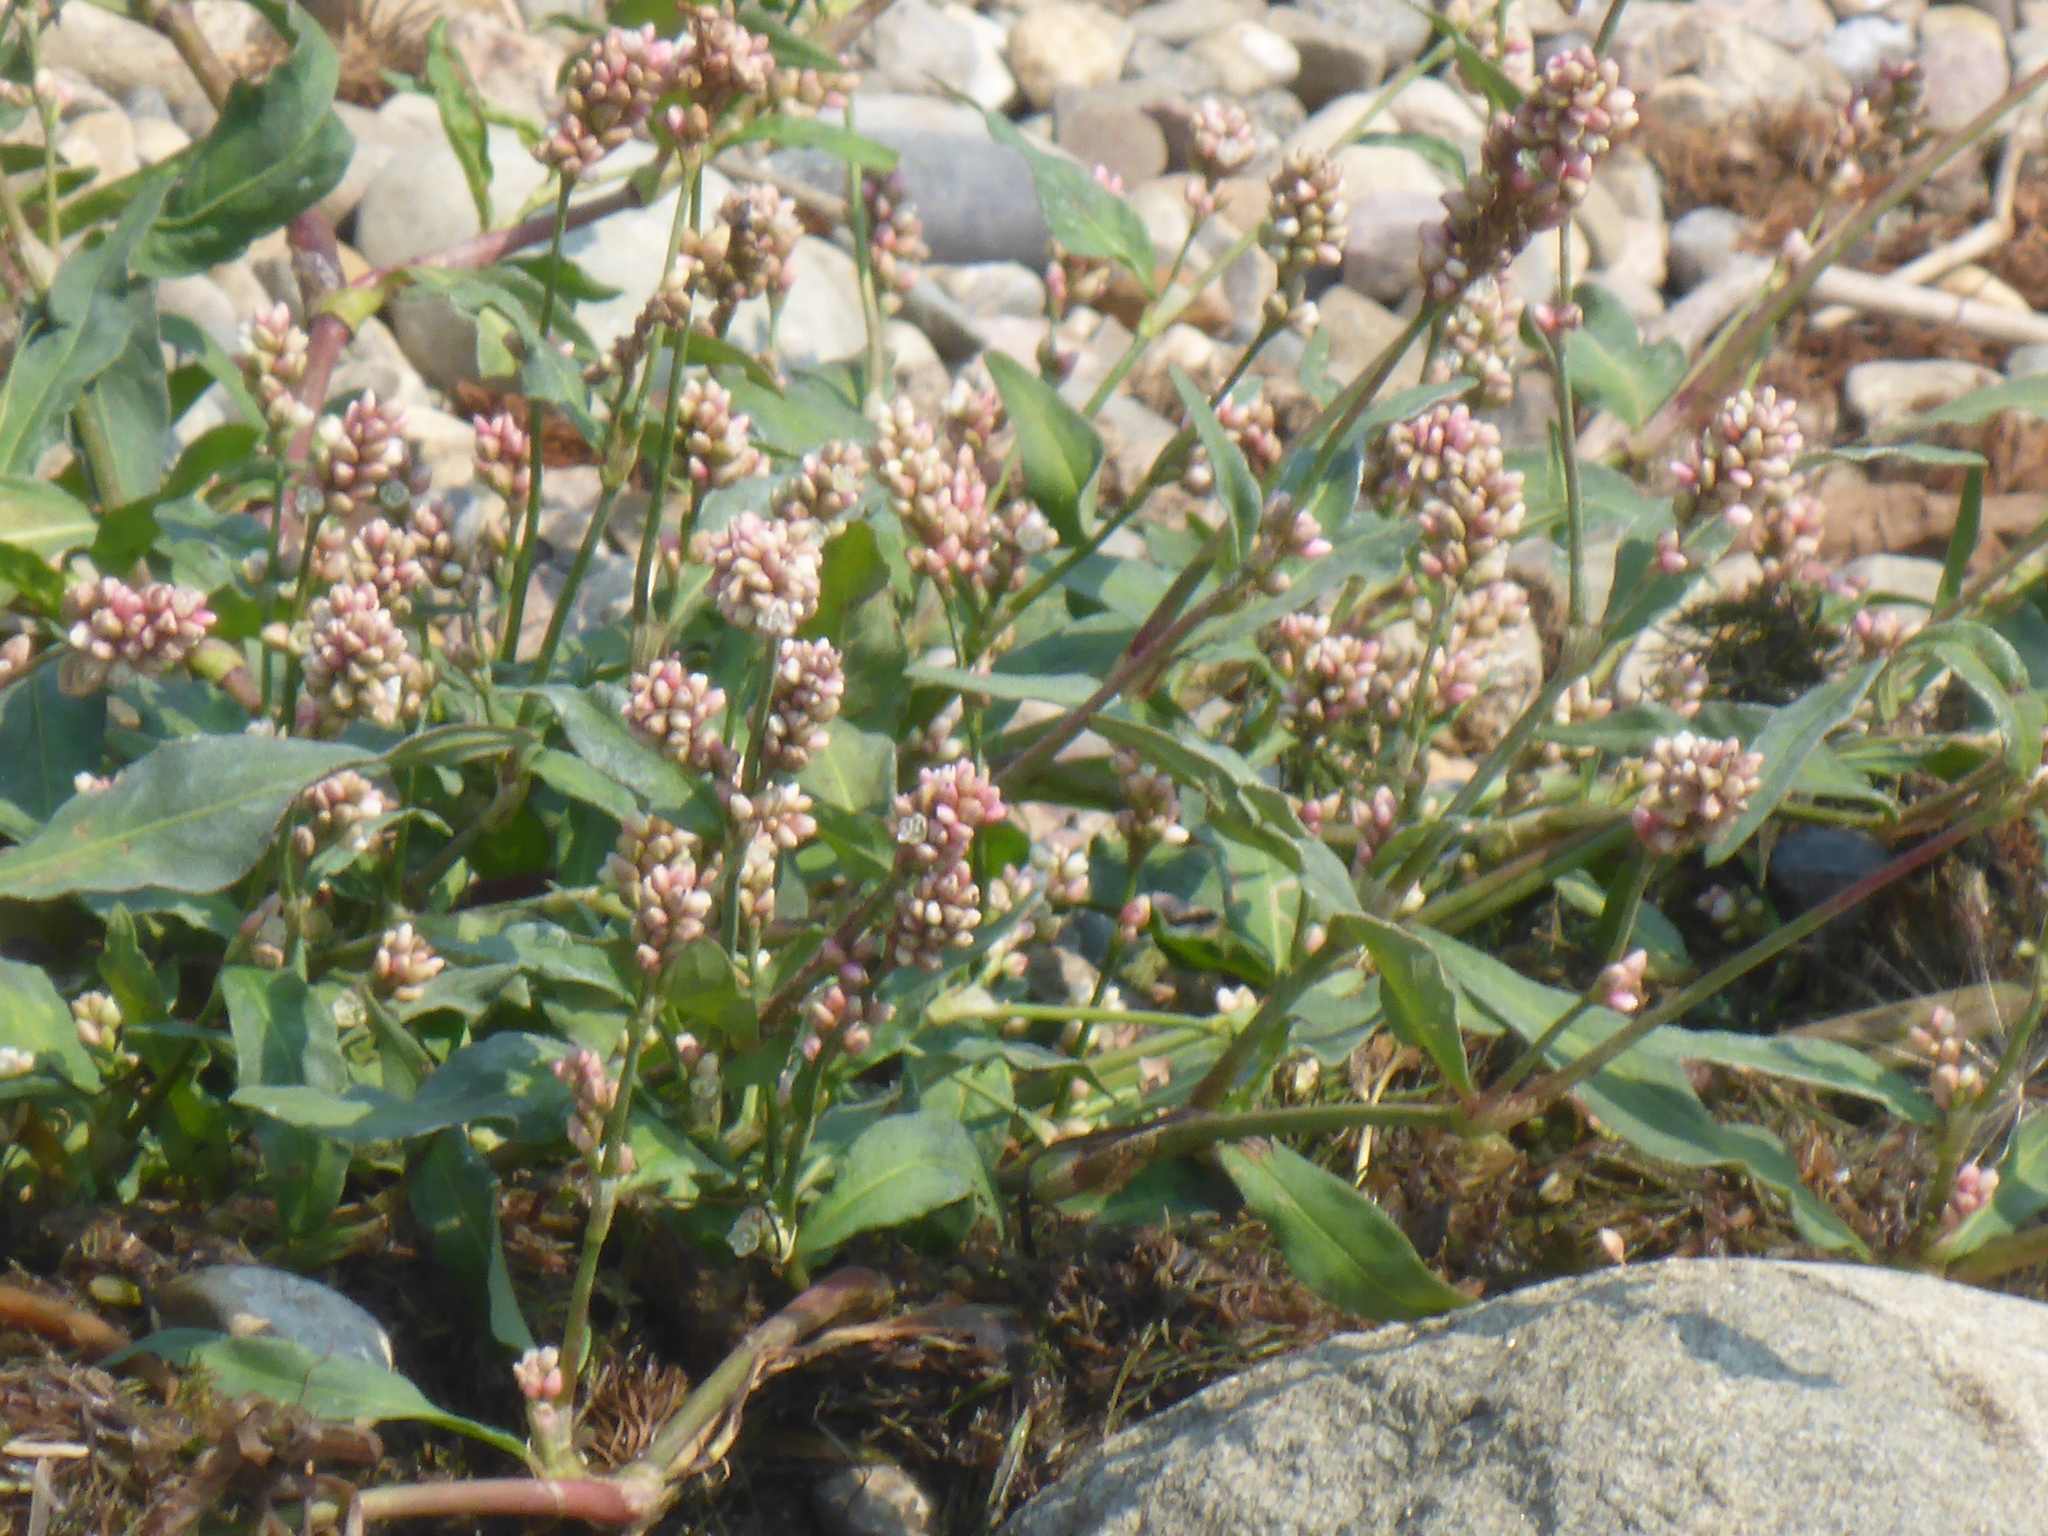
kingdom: Plantae
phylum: Tracheophyta
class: Magnoliopsida
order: Caryophyllales
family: Polygonaceae
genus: Persicaria
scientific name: Persicaria maculosa
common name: Redshank
